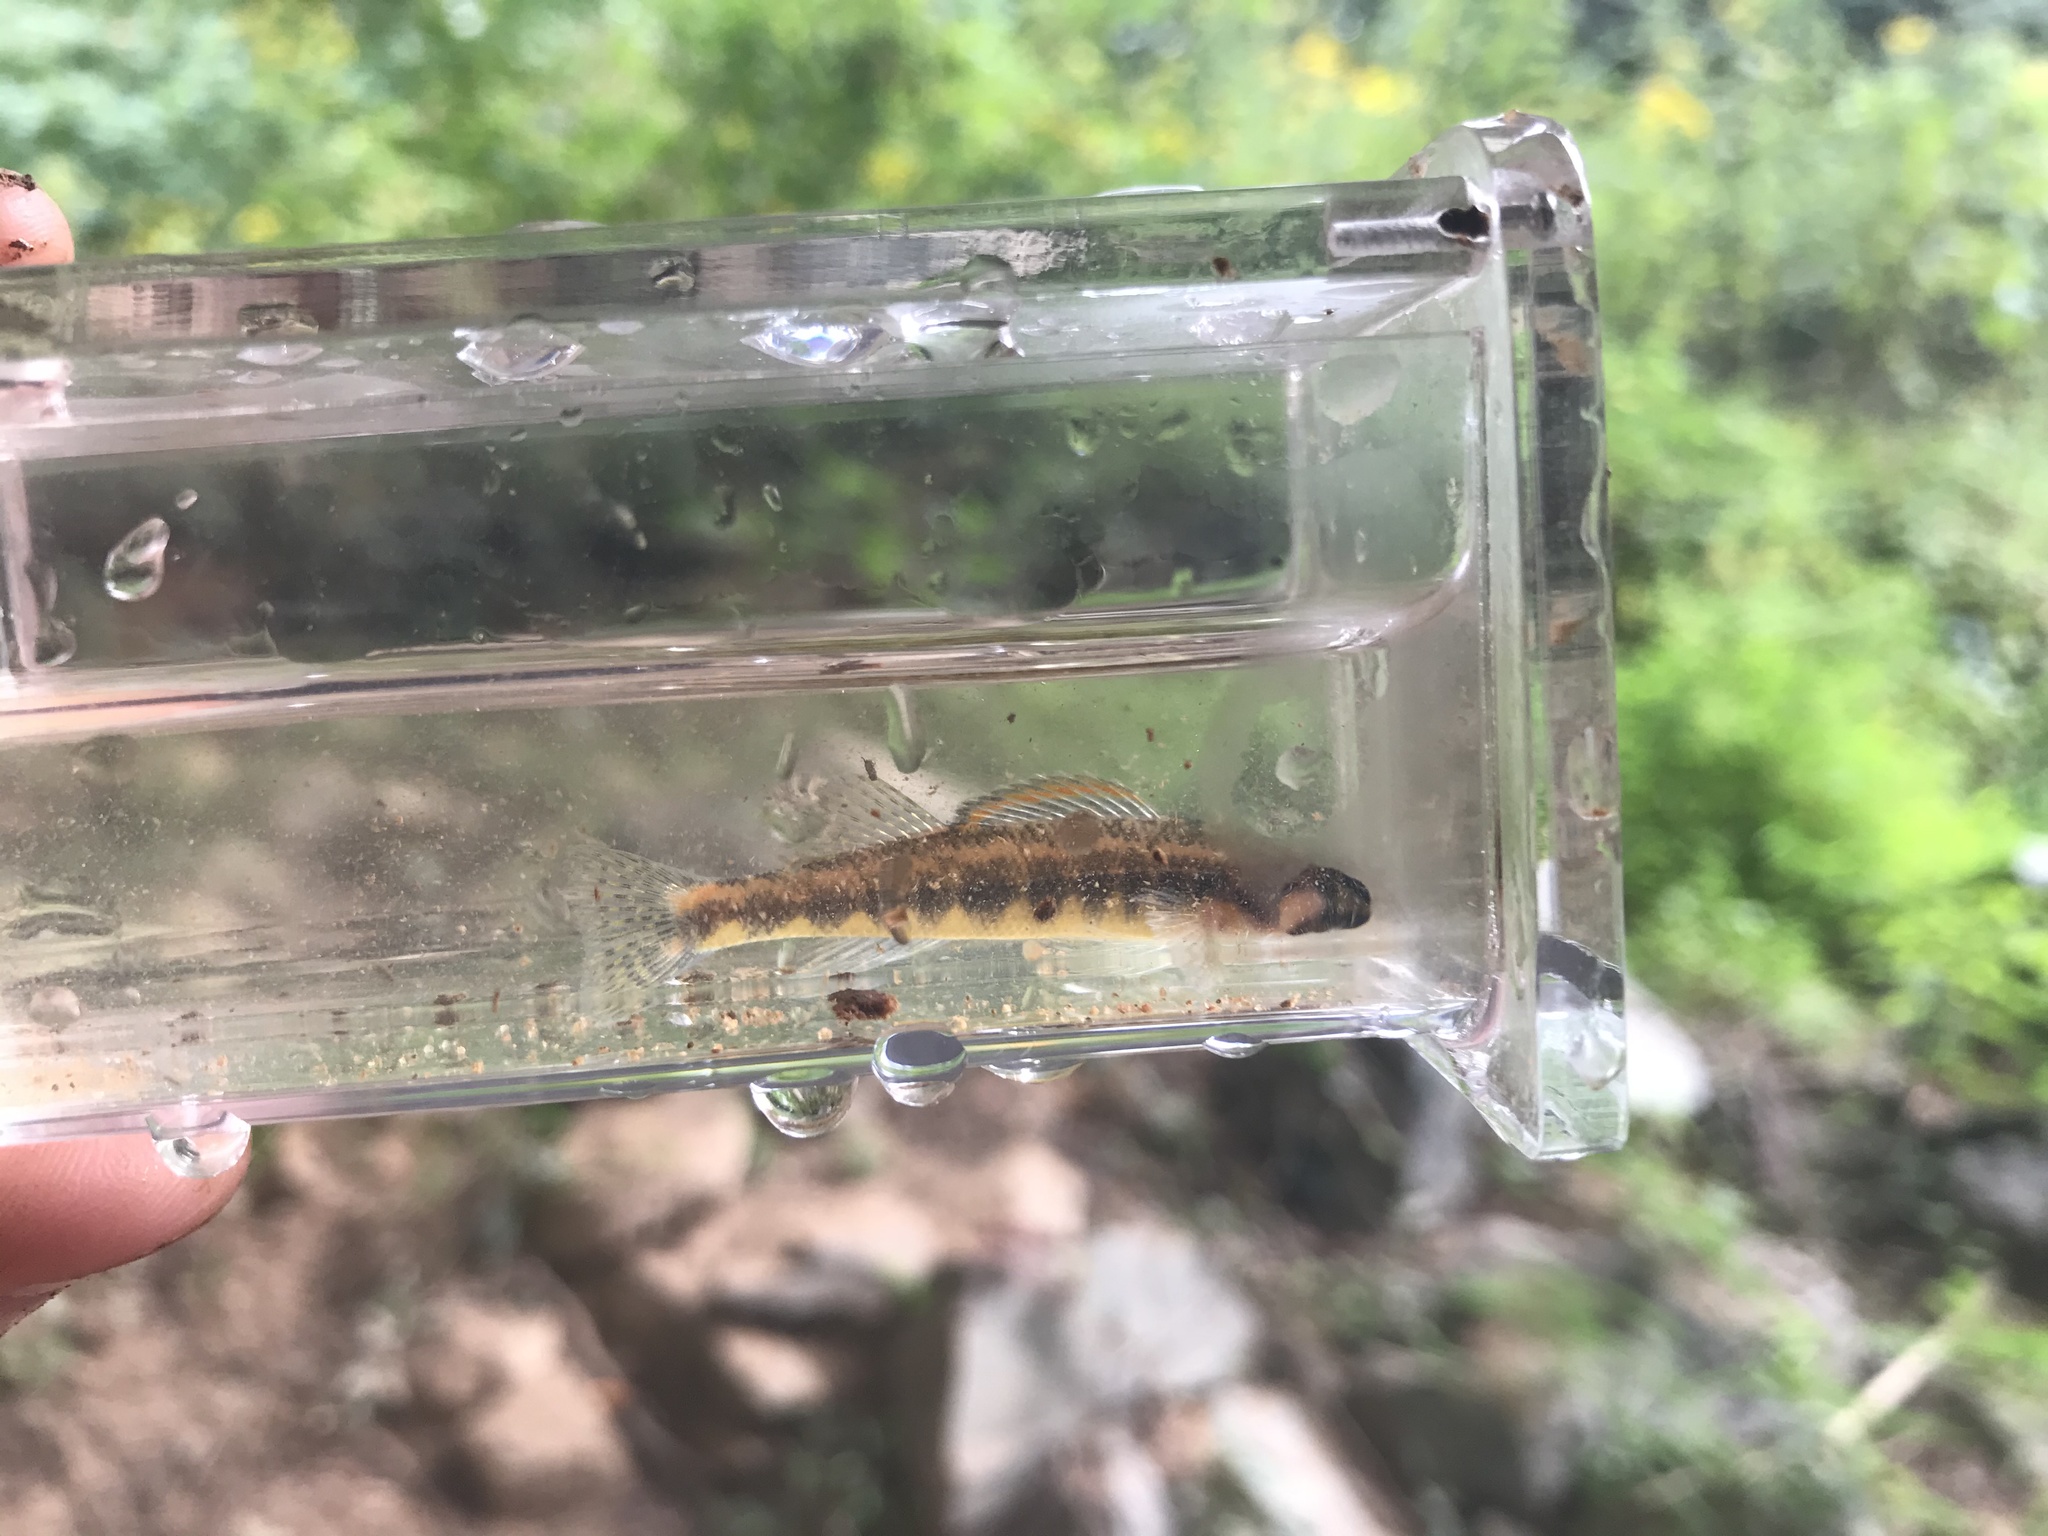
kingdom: Animalia
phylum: Chordata
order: Perciformes
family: Percidae
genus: Percina
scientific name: Percina roanoka
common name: Roanoke darter
